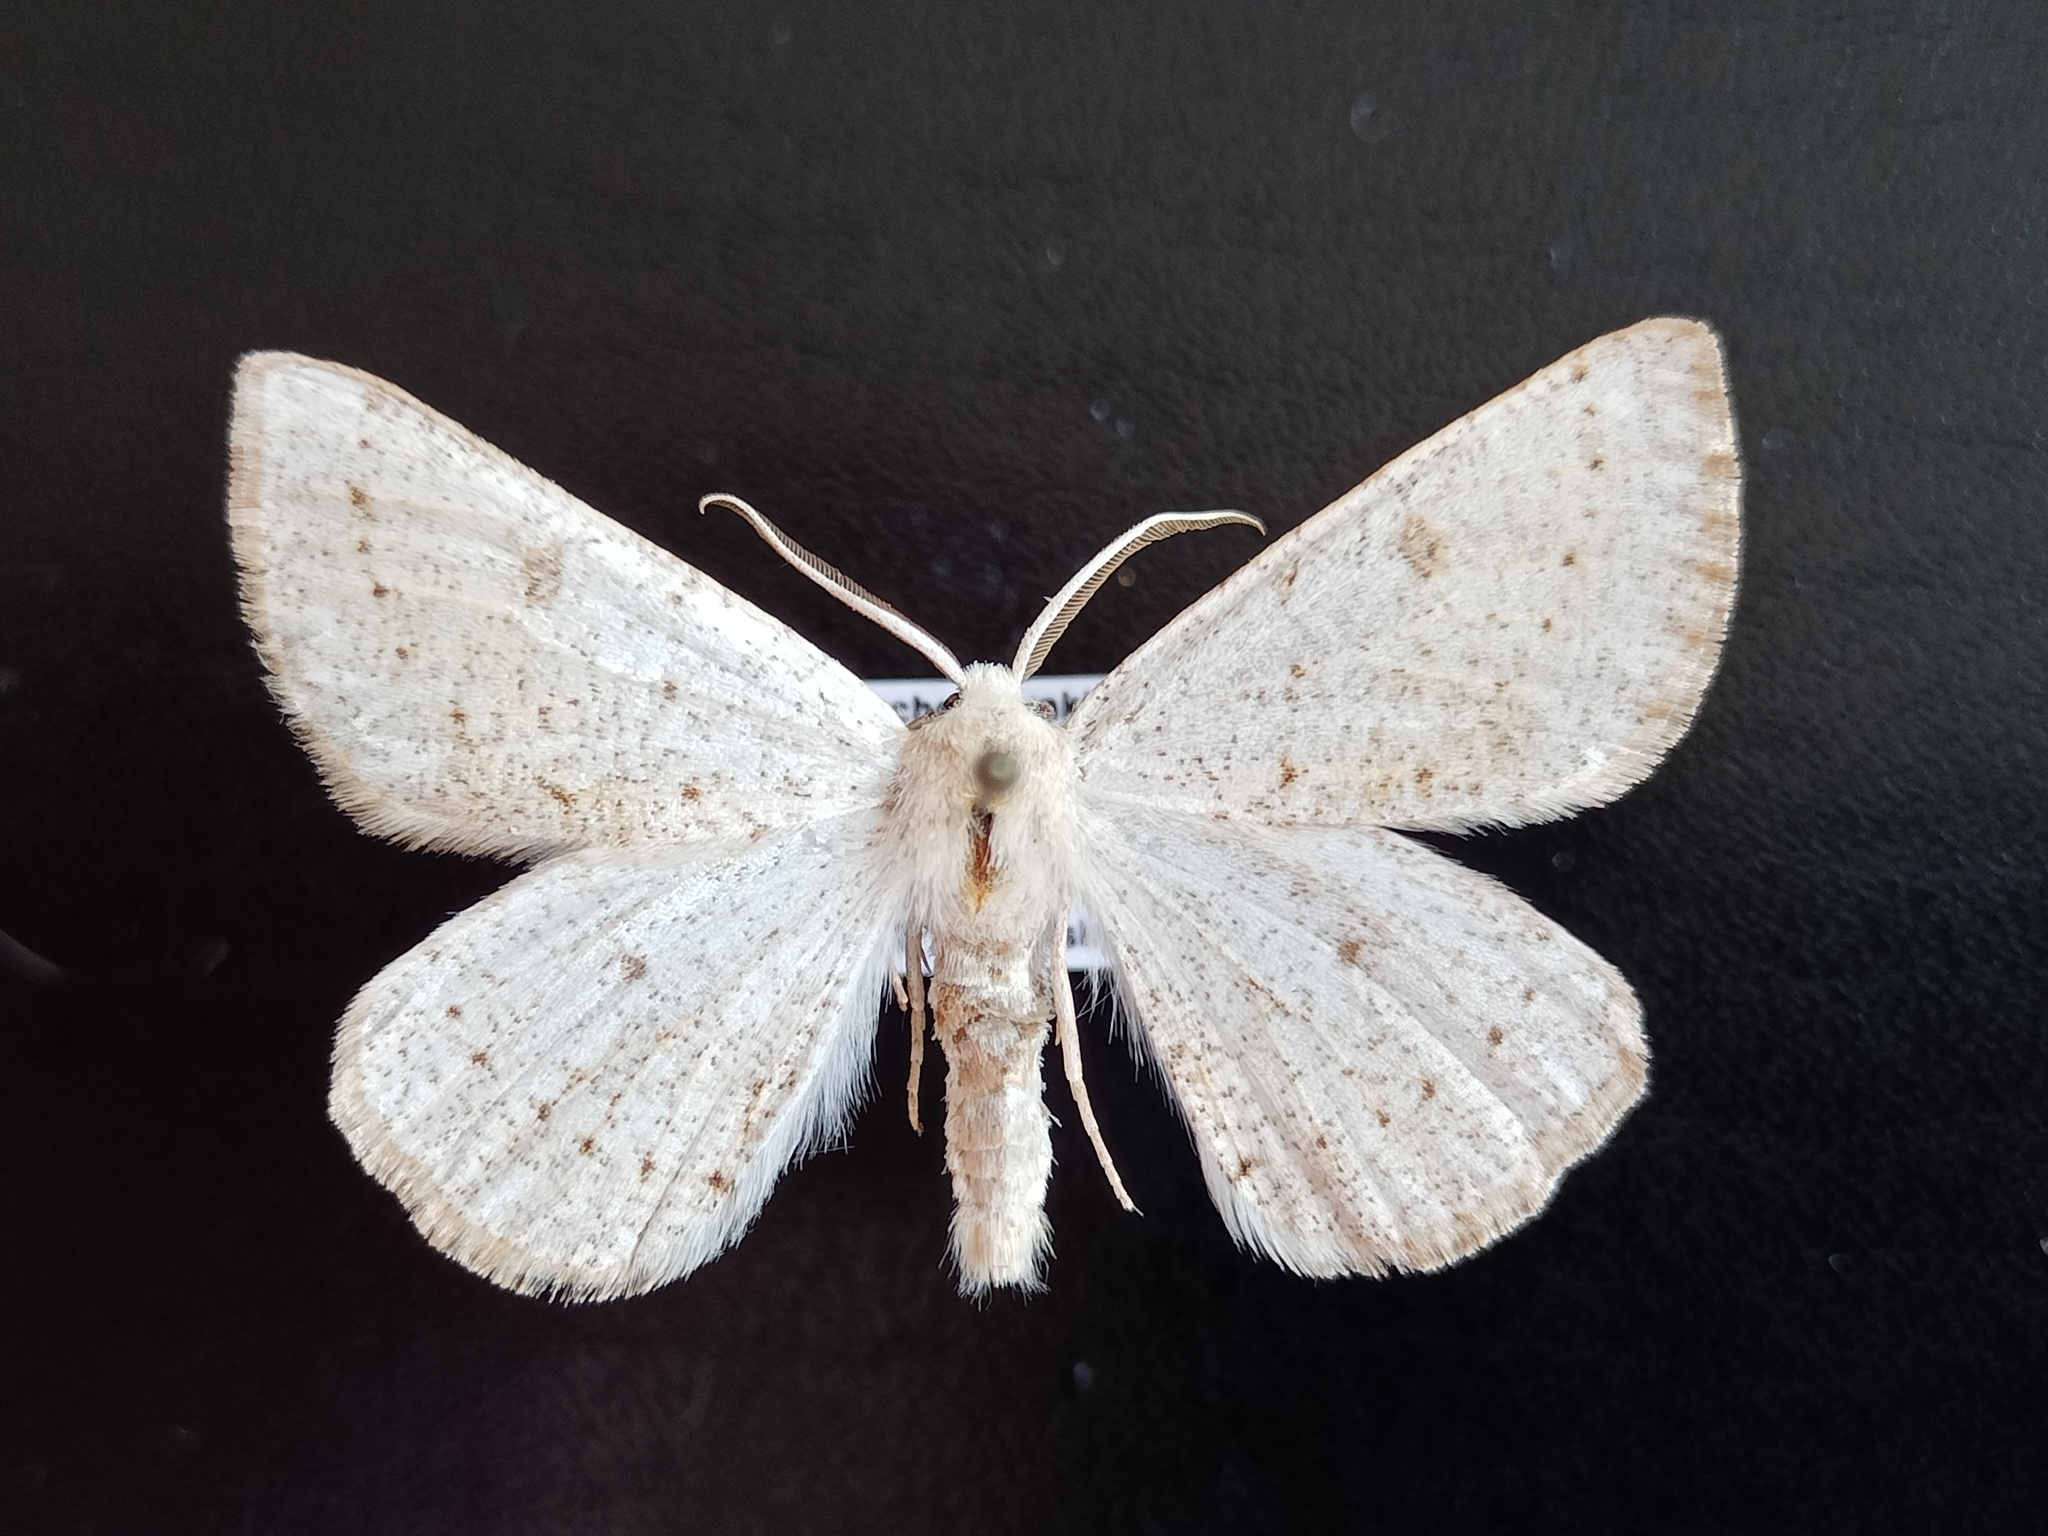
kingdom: Animalia
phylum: Arthropoda
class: Insecta
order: Lepidoptera
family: Geometridae
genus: Dyscia
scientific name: Dyscia conspersaria
